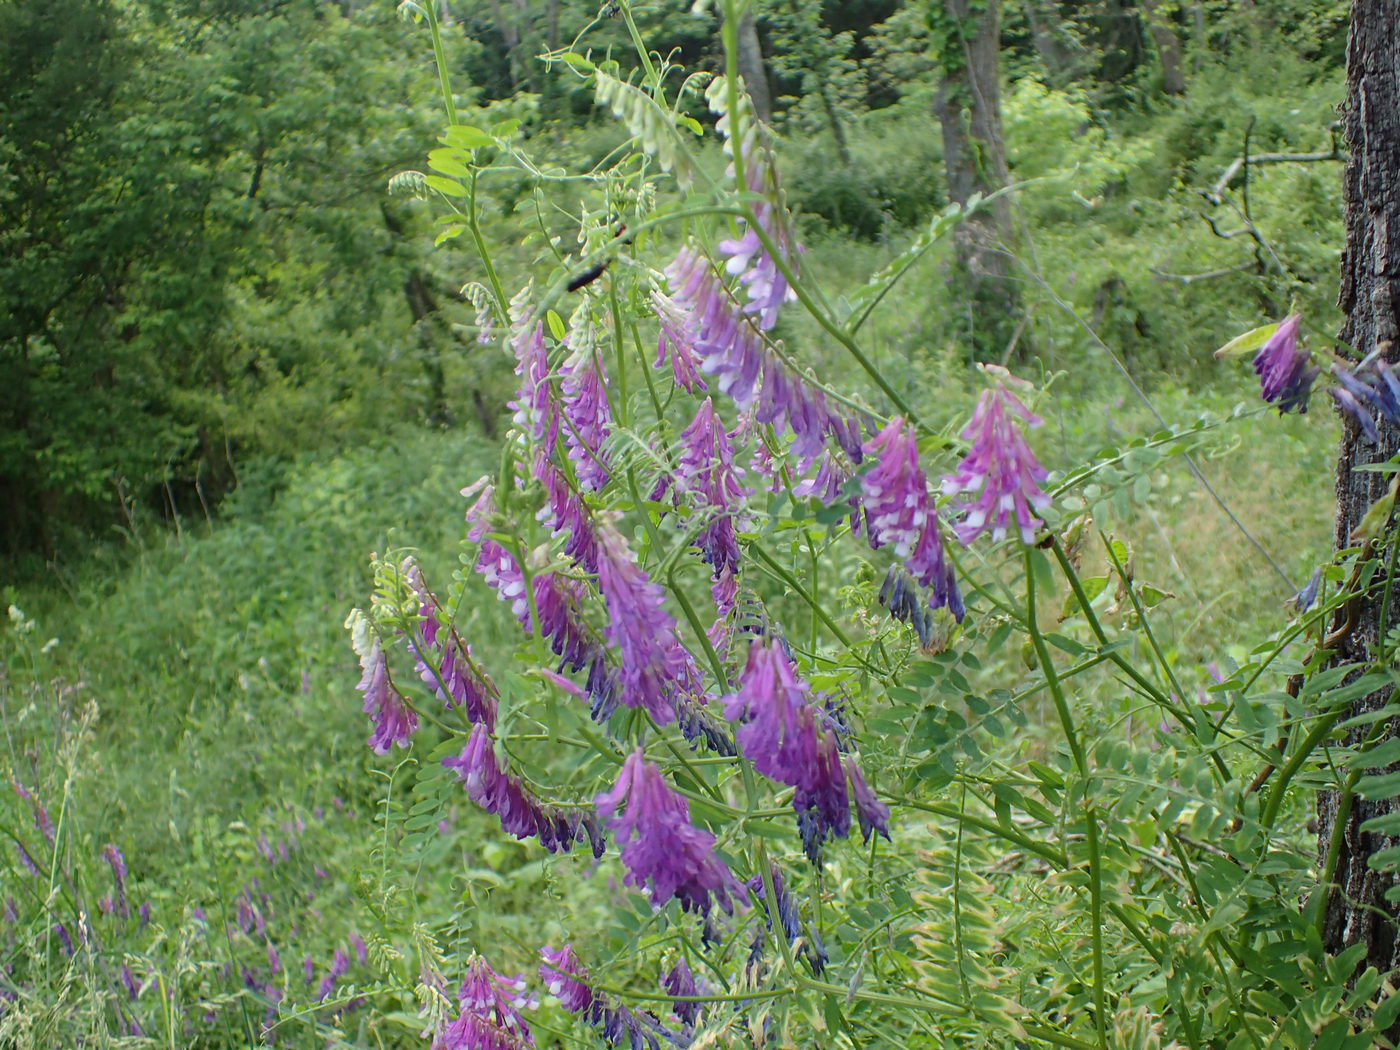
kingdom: Plantae
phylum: Tracheophyta
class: Magnoliopsida
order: Fabales
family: Fabaceae
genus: Vicia
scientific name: Vicia villosa
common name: Fodder vetch
